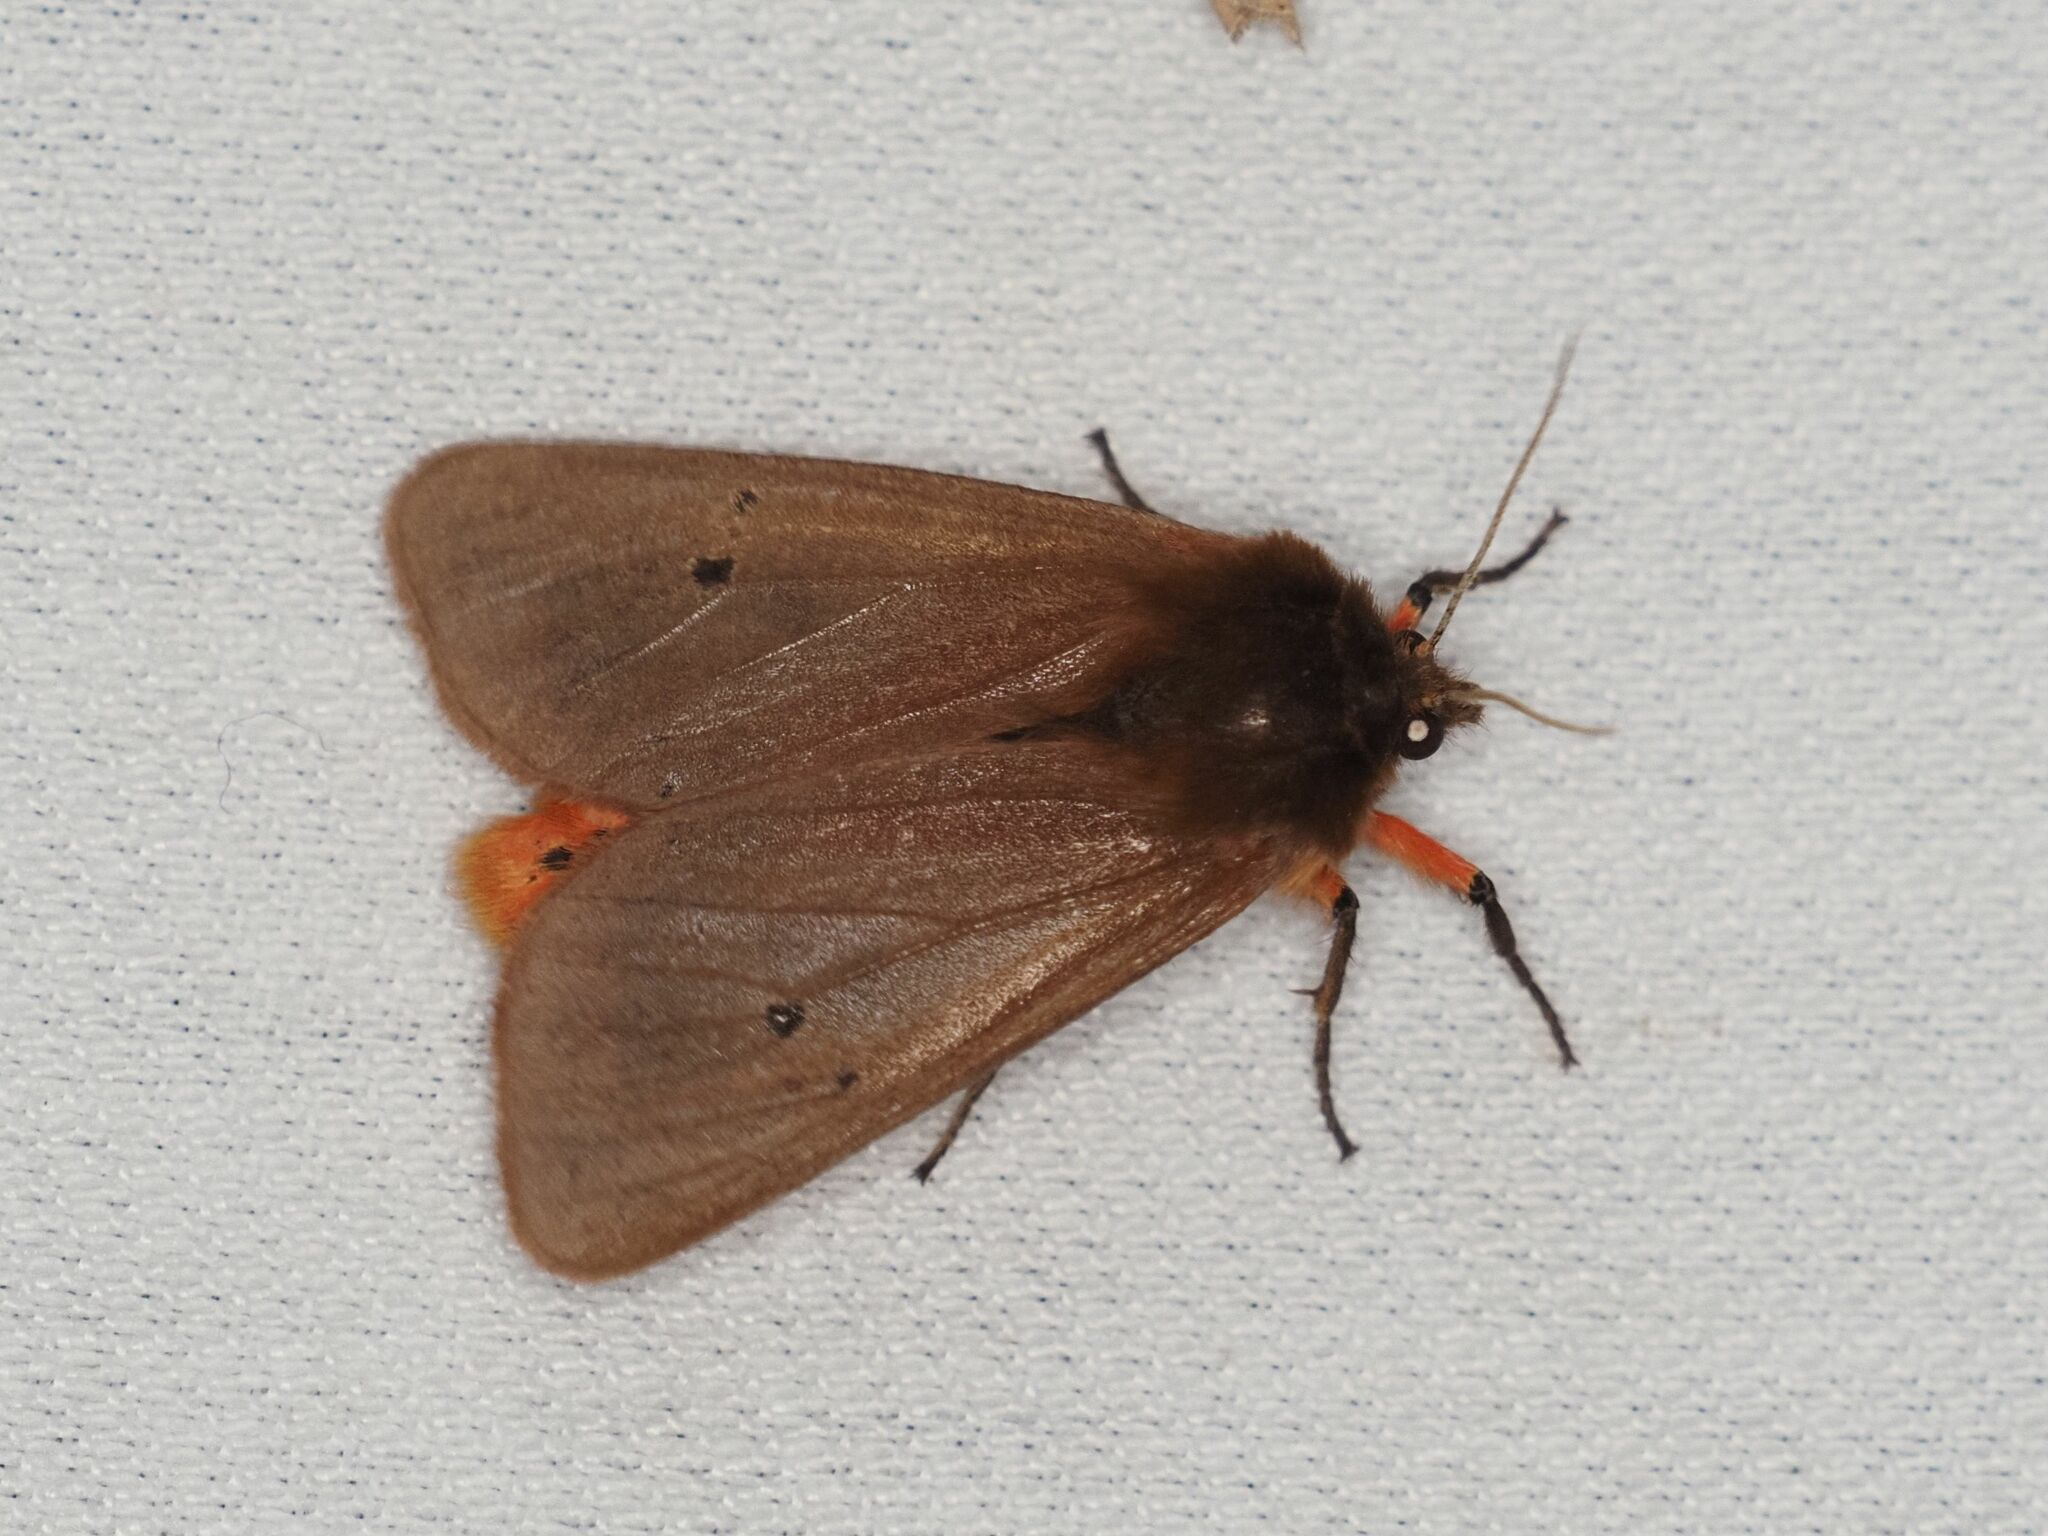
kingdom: Animalia
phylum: Arthropoda
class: Insecta
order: Lepidoptera
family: Erebidae
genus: Phragmatobia
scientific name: Phragmatobia fuliginosa
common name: Ruby tiger
